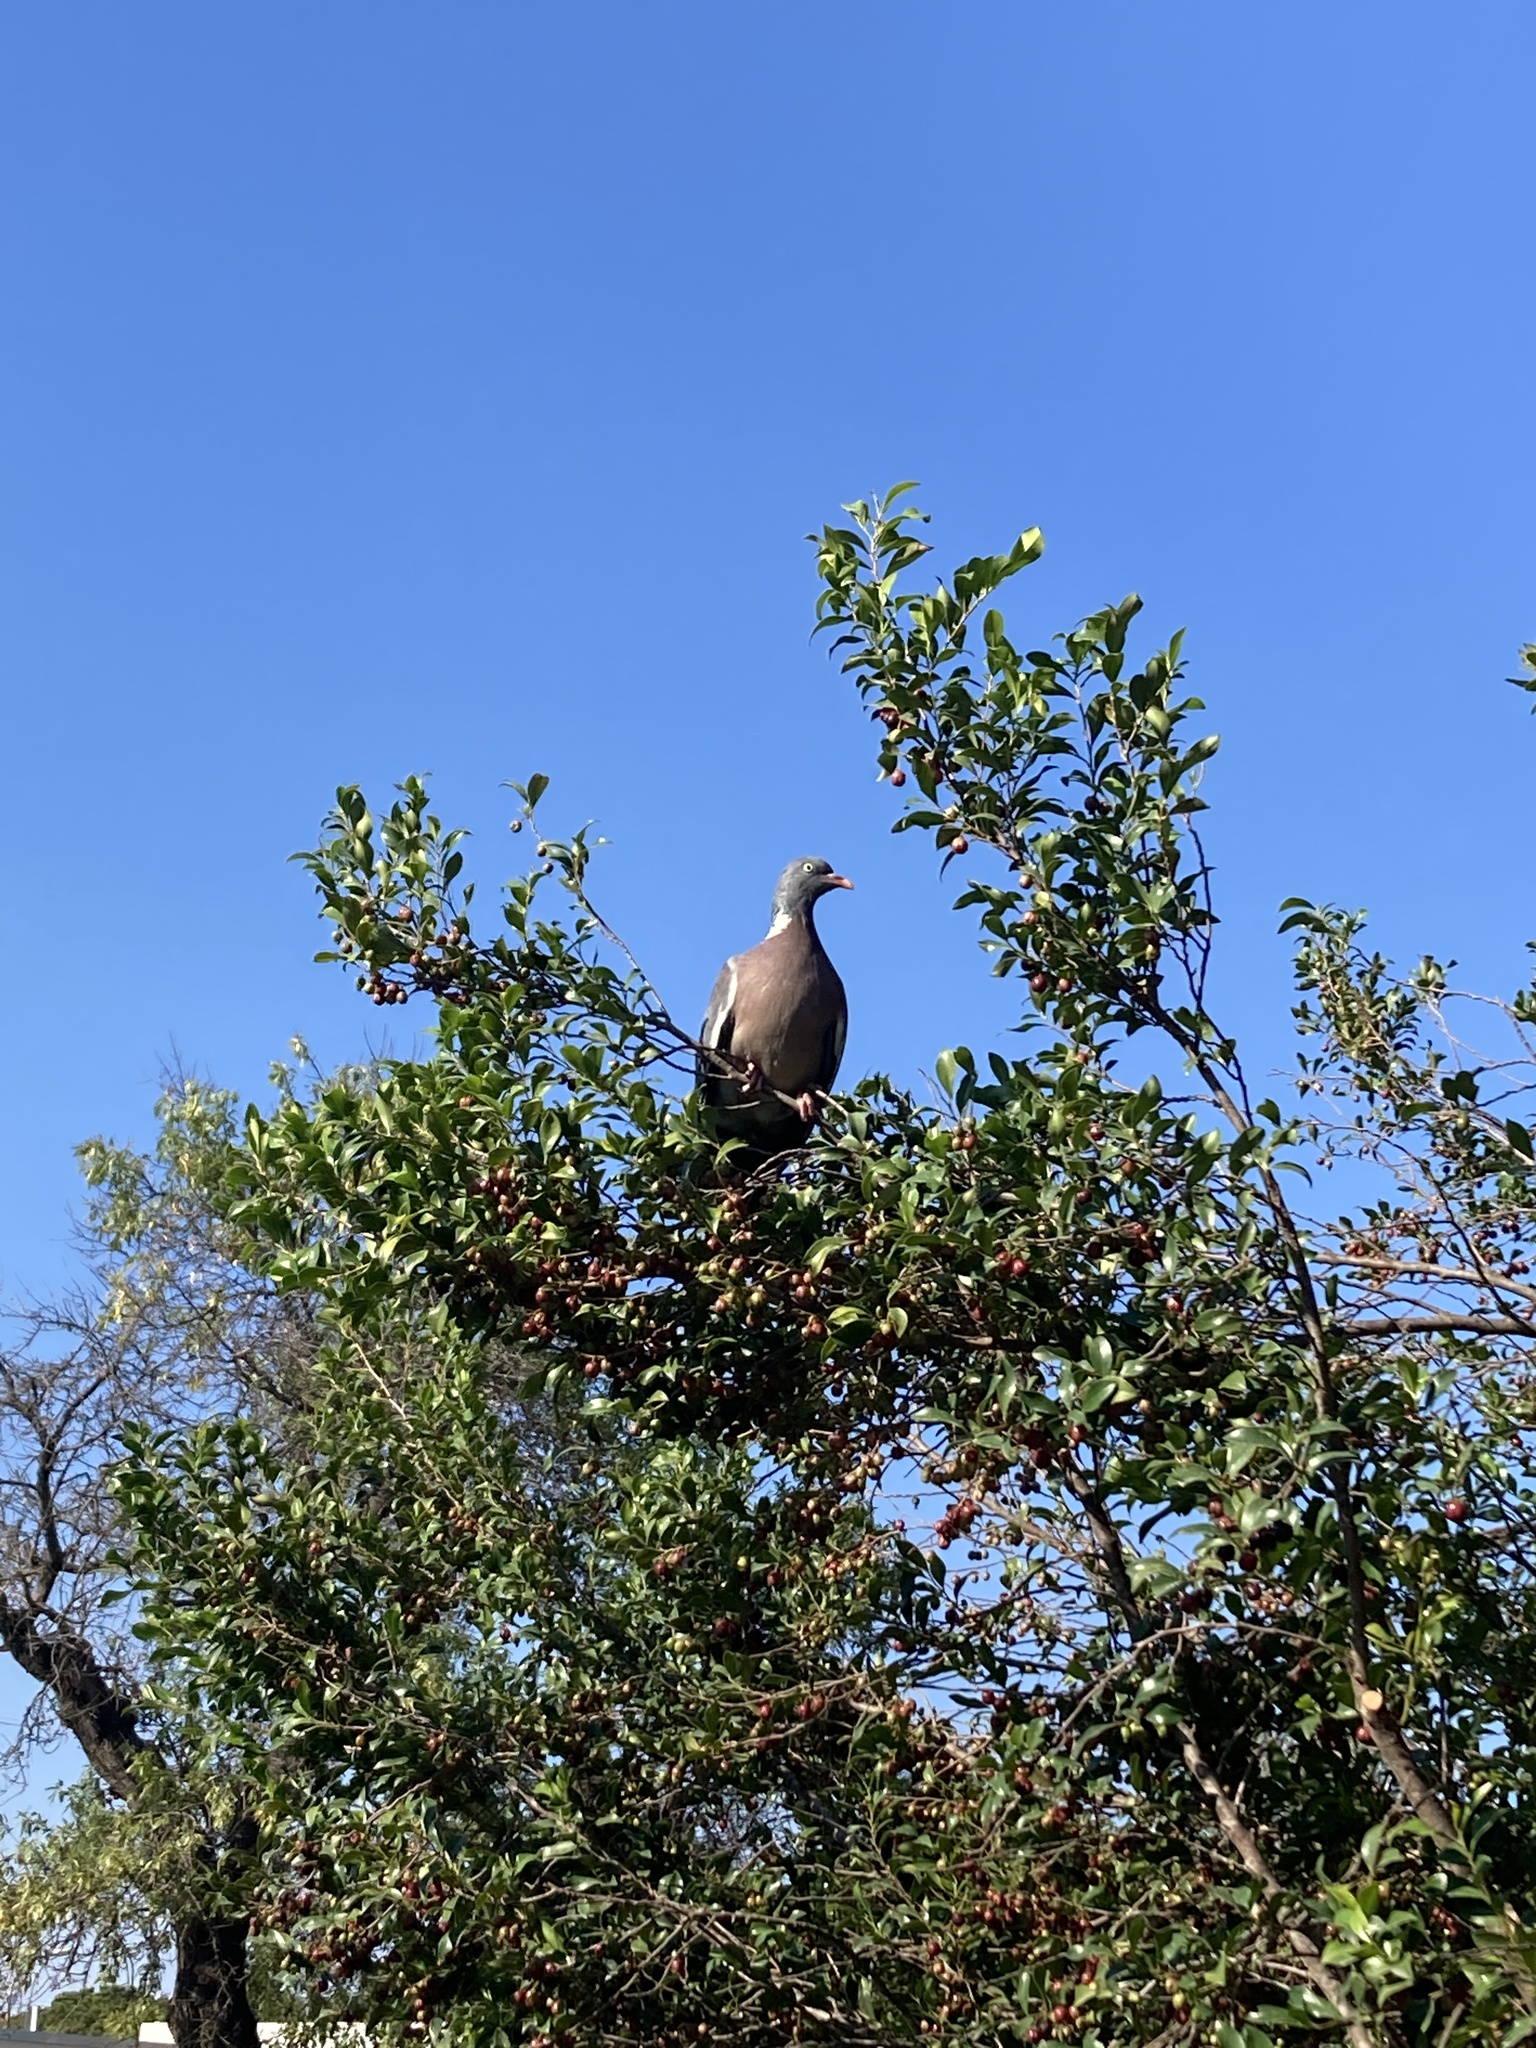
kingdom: Animalia
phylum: Chordata
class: Aves
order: Columbiformes
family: Columbidae
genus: Columba
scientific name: Columba palumbus
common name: Common wood pigeon
